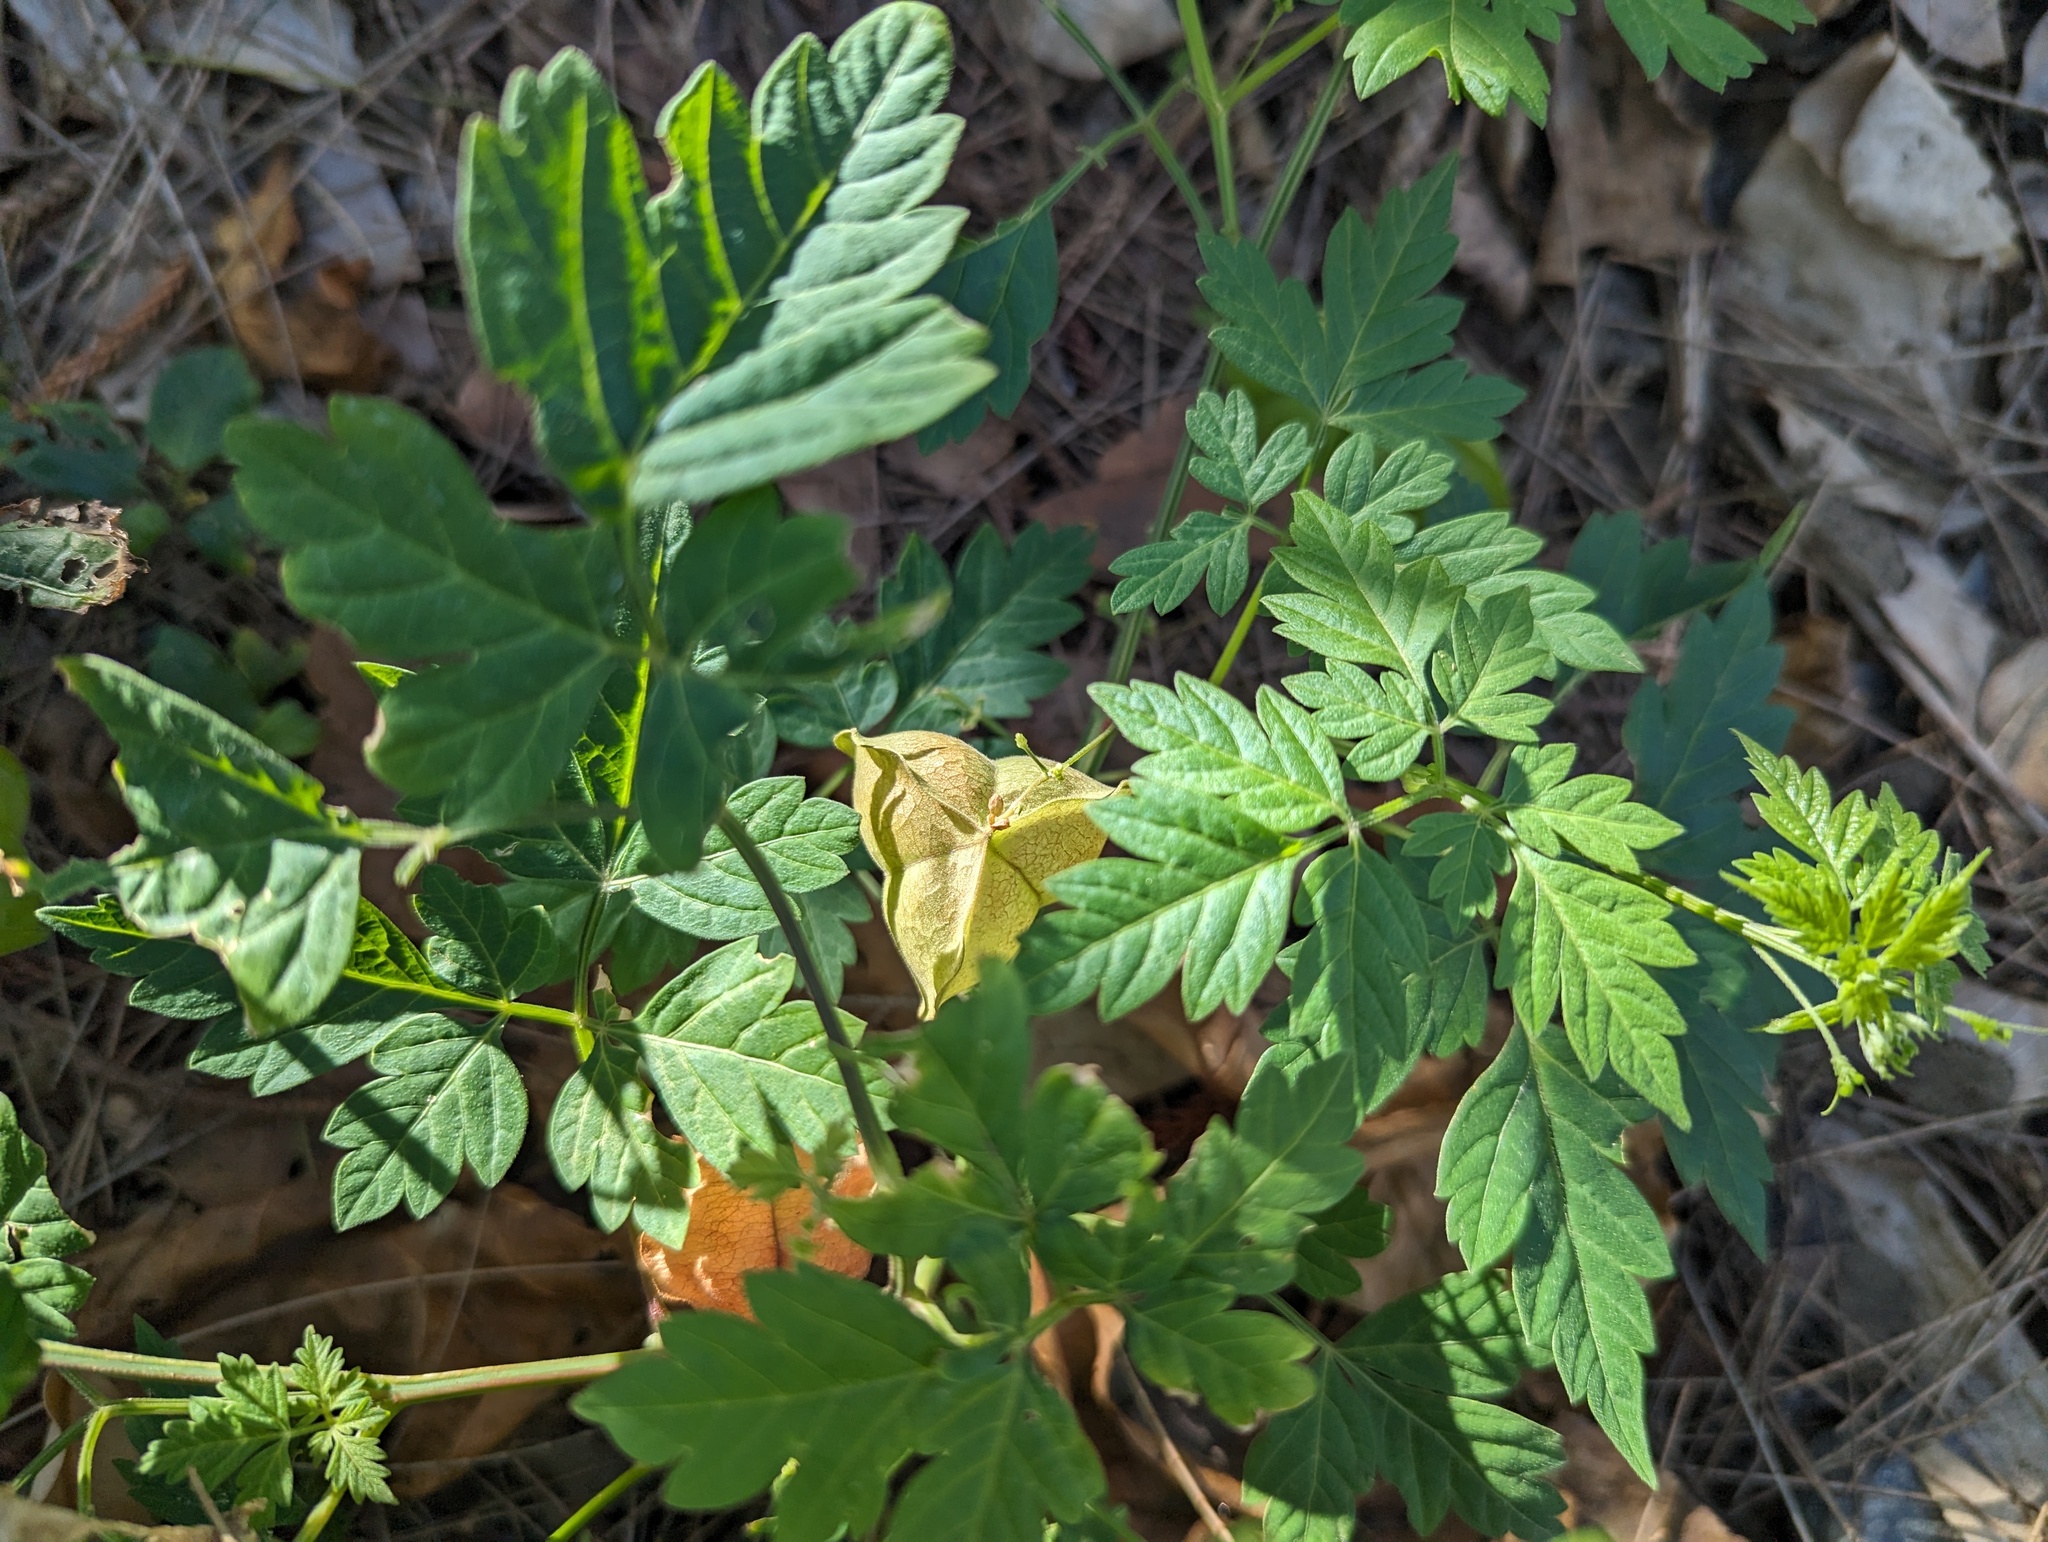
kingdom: Plantae
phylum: Tracheophyta
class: Magnoliopsida
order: Sapindales
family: Sapindaceae
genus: Cardiospermum
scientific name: Cardiospermum halicacabum
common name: Balloon vine
